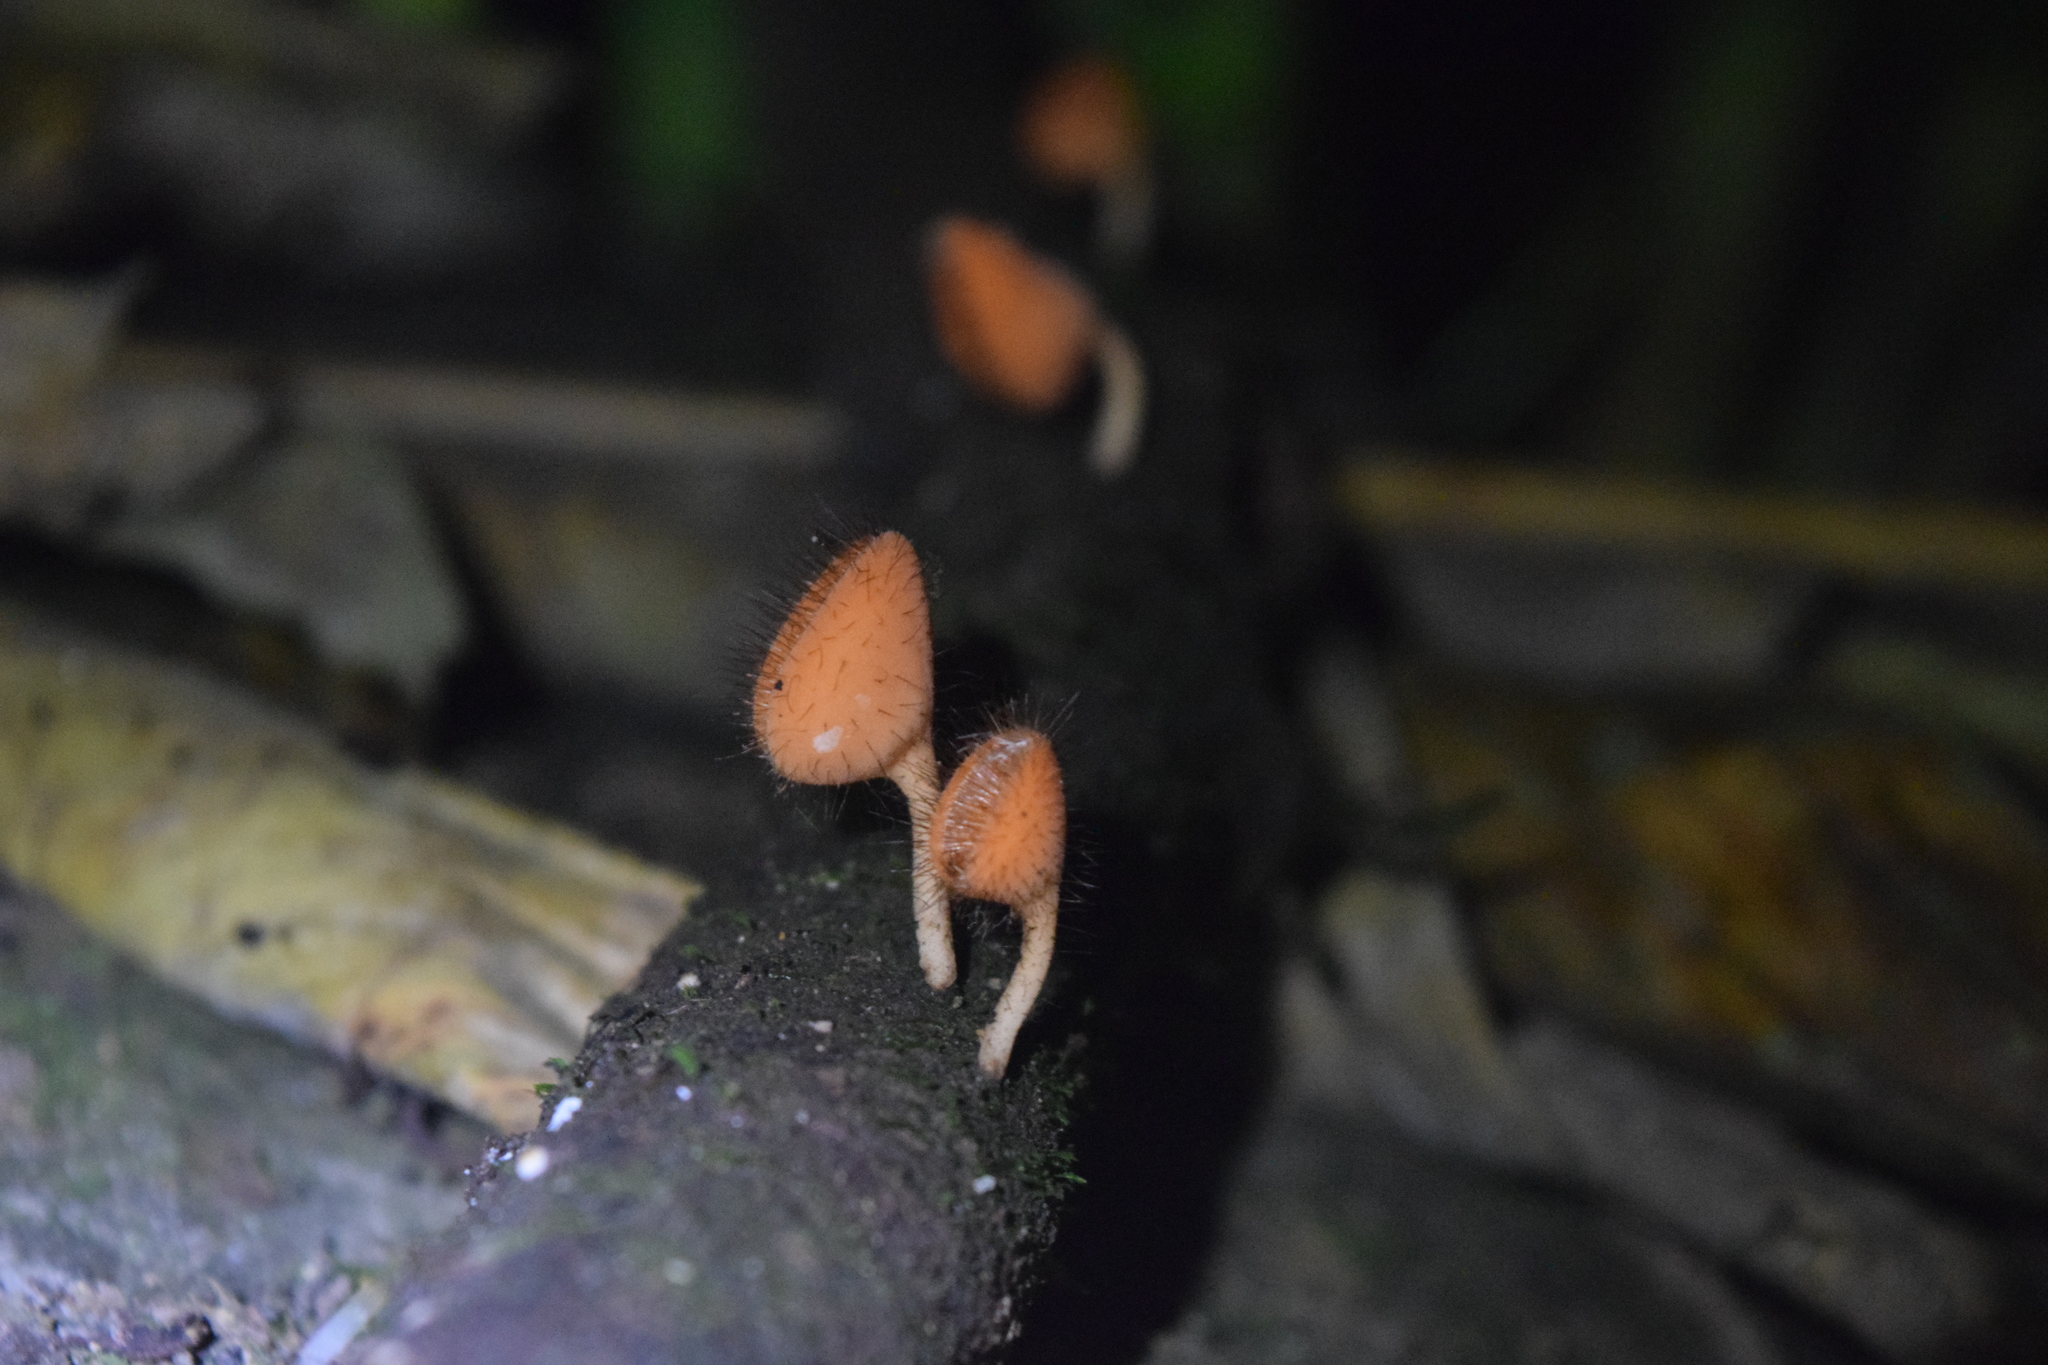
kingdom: Fungi
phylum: Ascomycota
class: Pezizomycetes
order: Pezizales
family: Sarcoscyphaceae
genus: Cookeina
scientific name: Cookeina tricholoma
